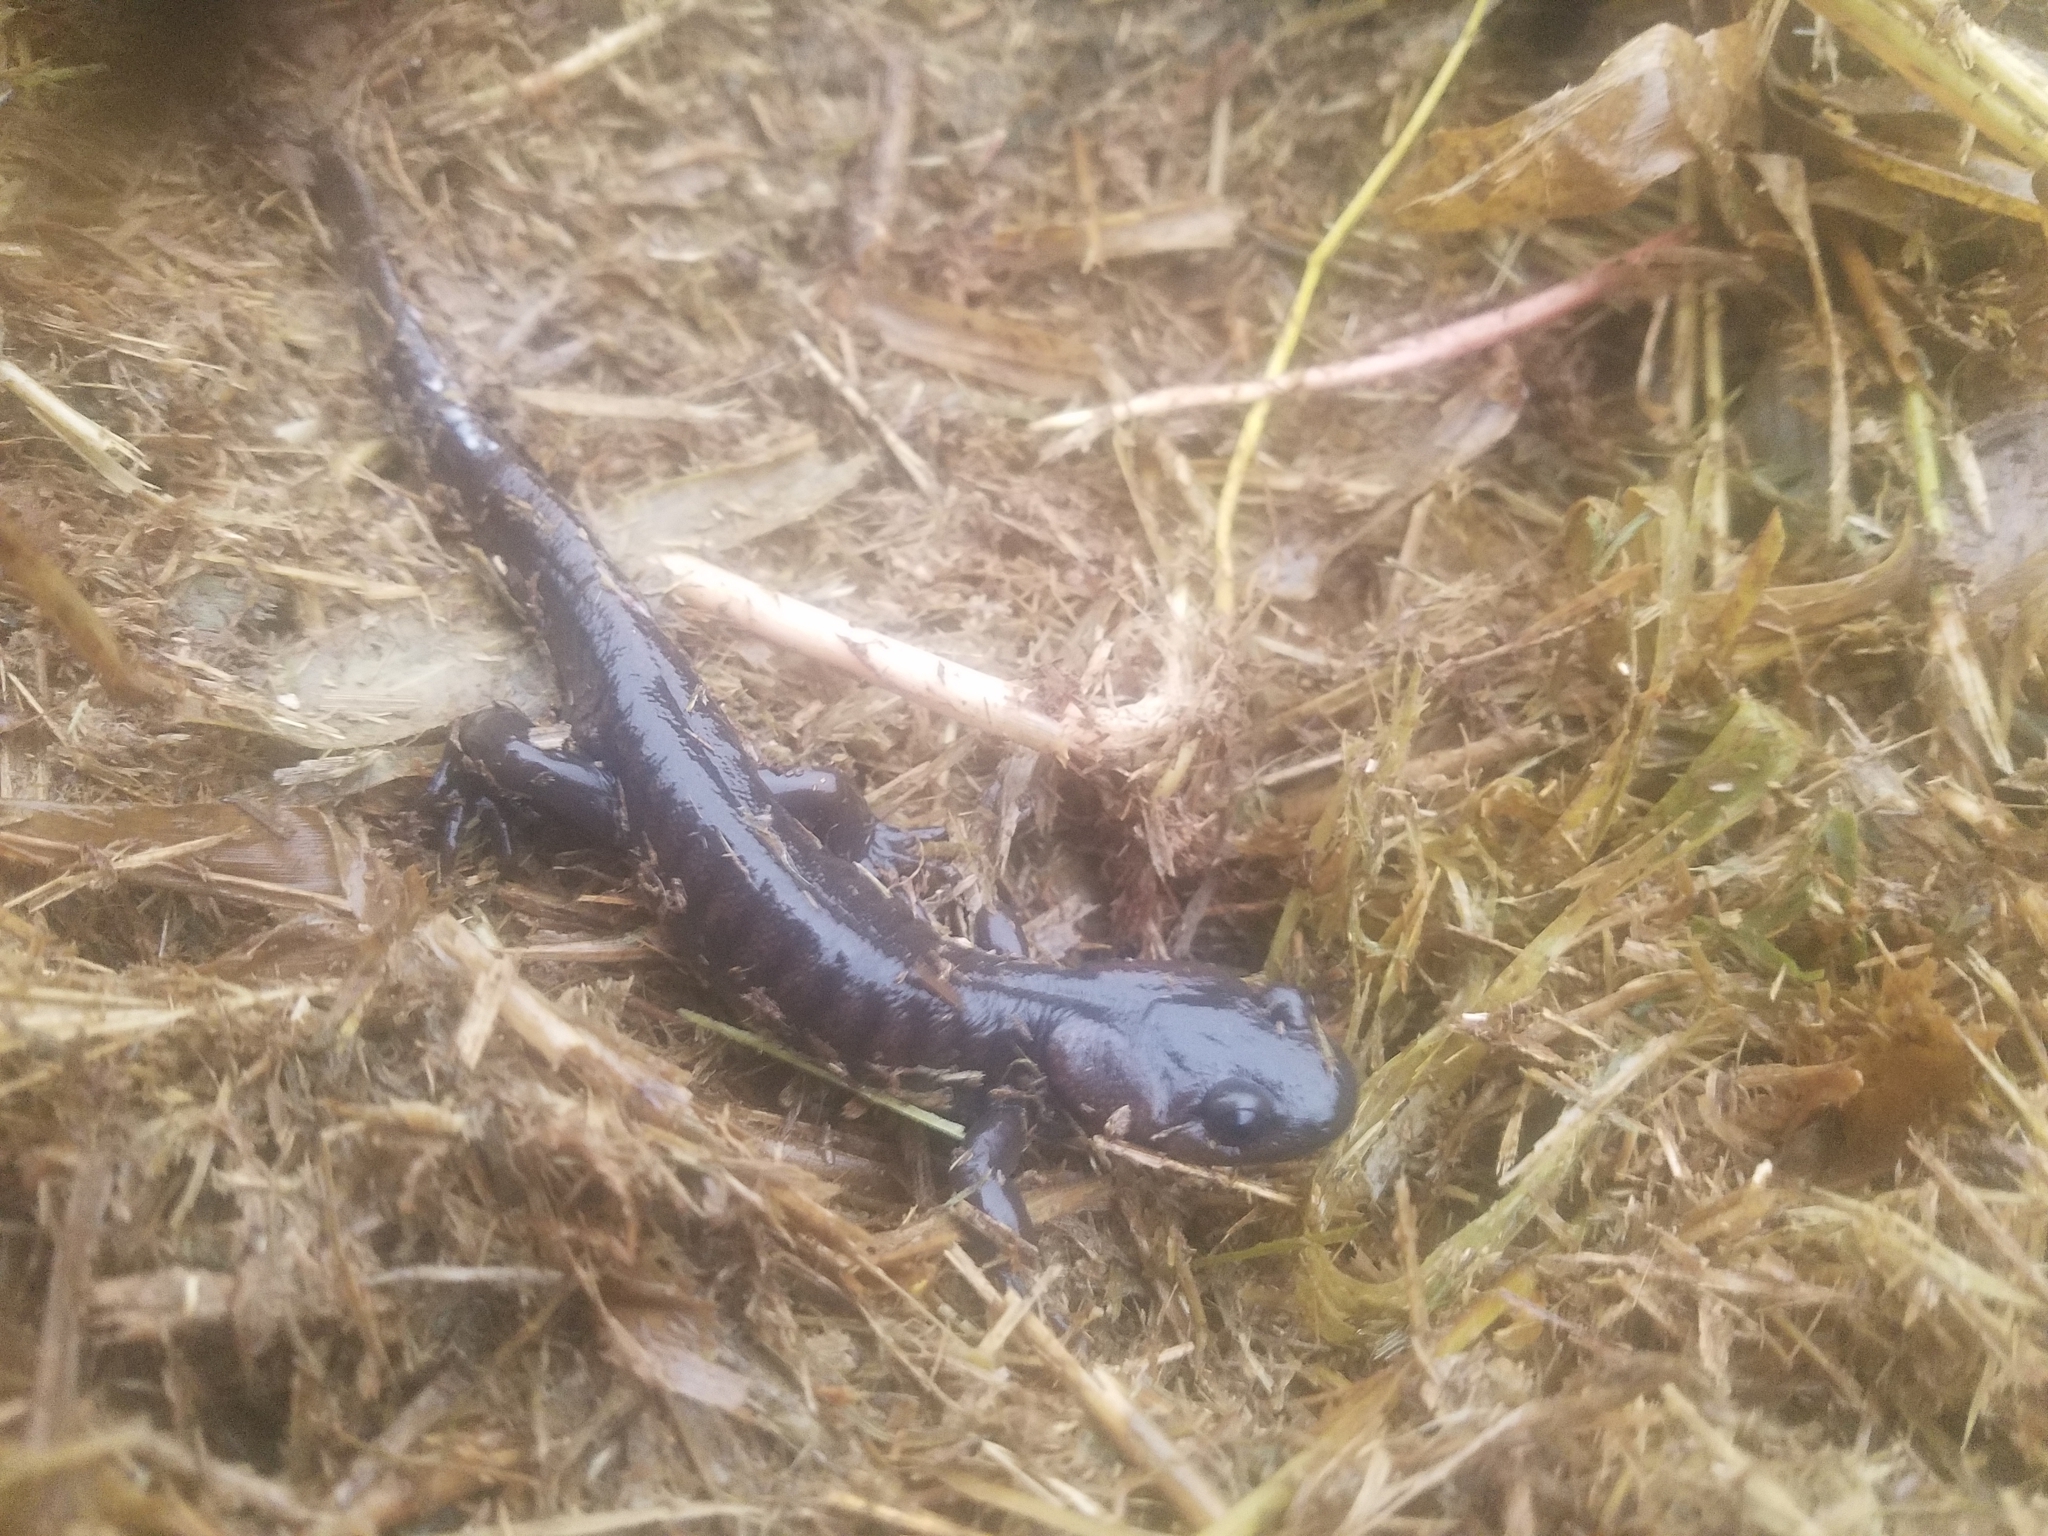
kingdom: Animalia
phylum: Chordata
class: Amphibia
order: Caudata
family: Ambystomatidae
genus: Ambystoma
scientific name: Ambystoma gracile
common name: Northwestern salamander
